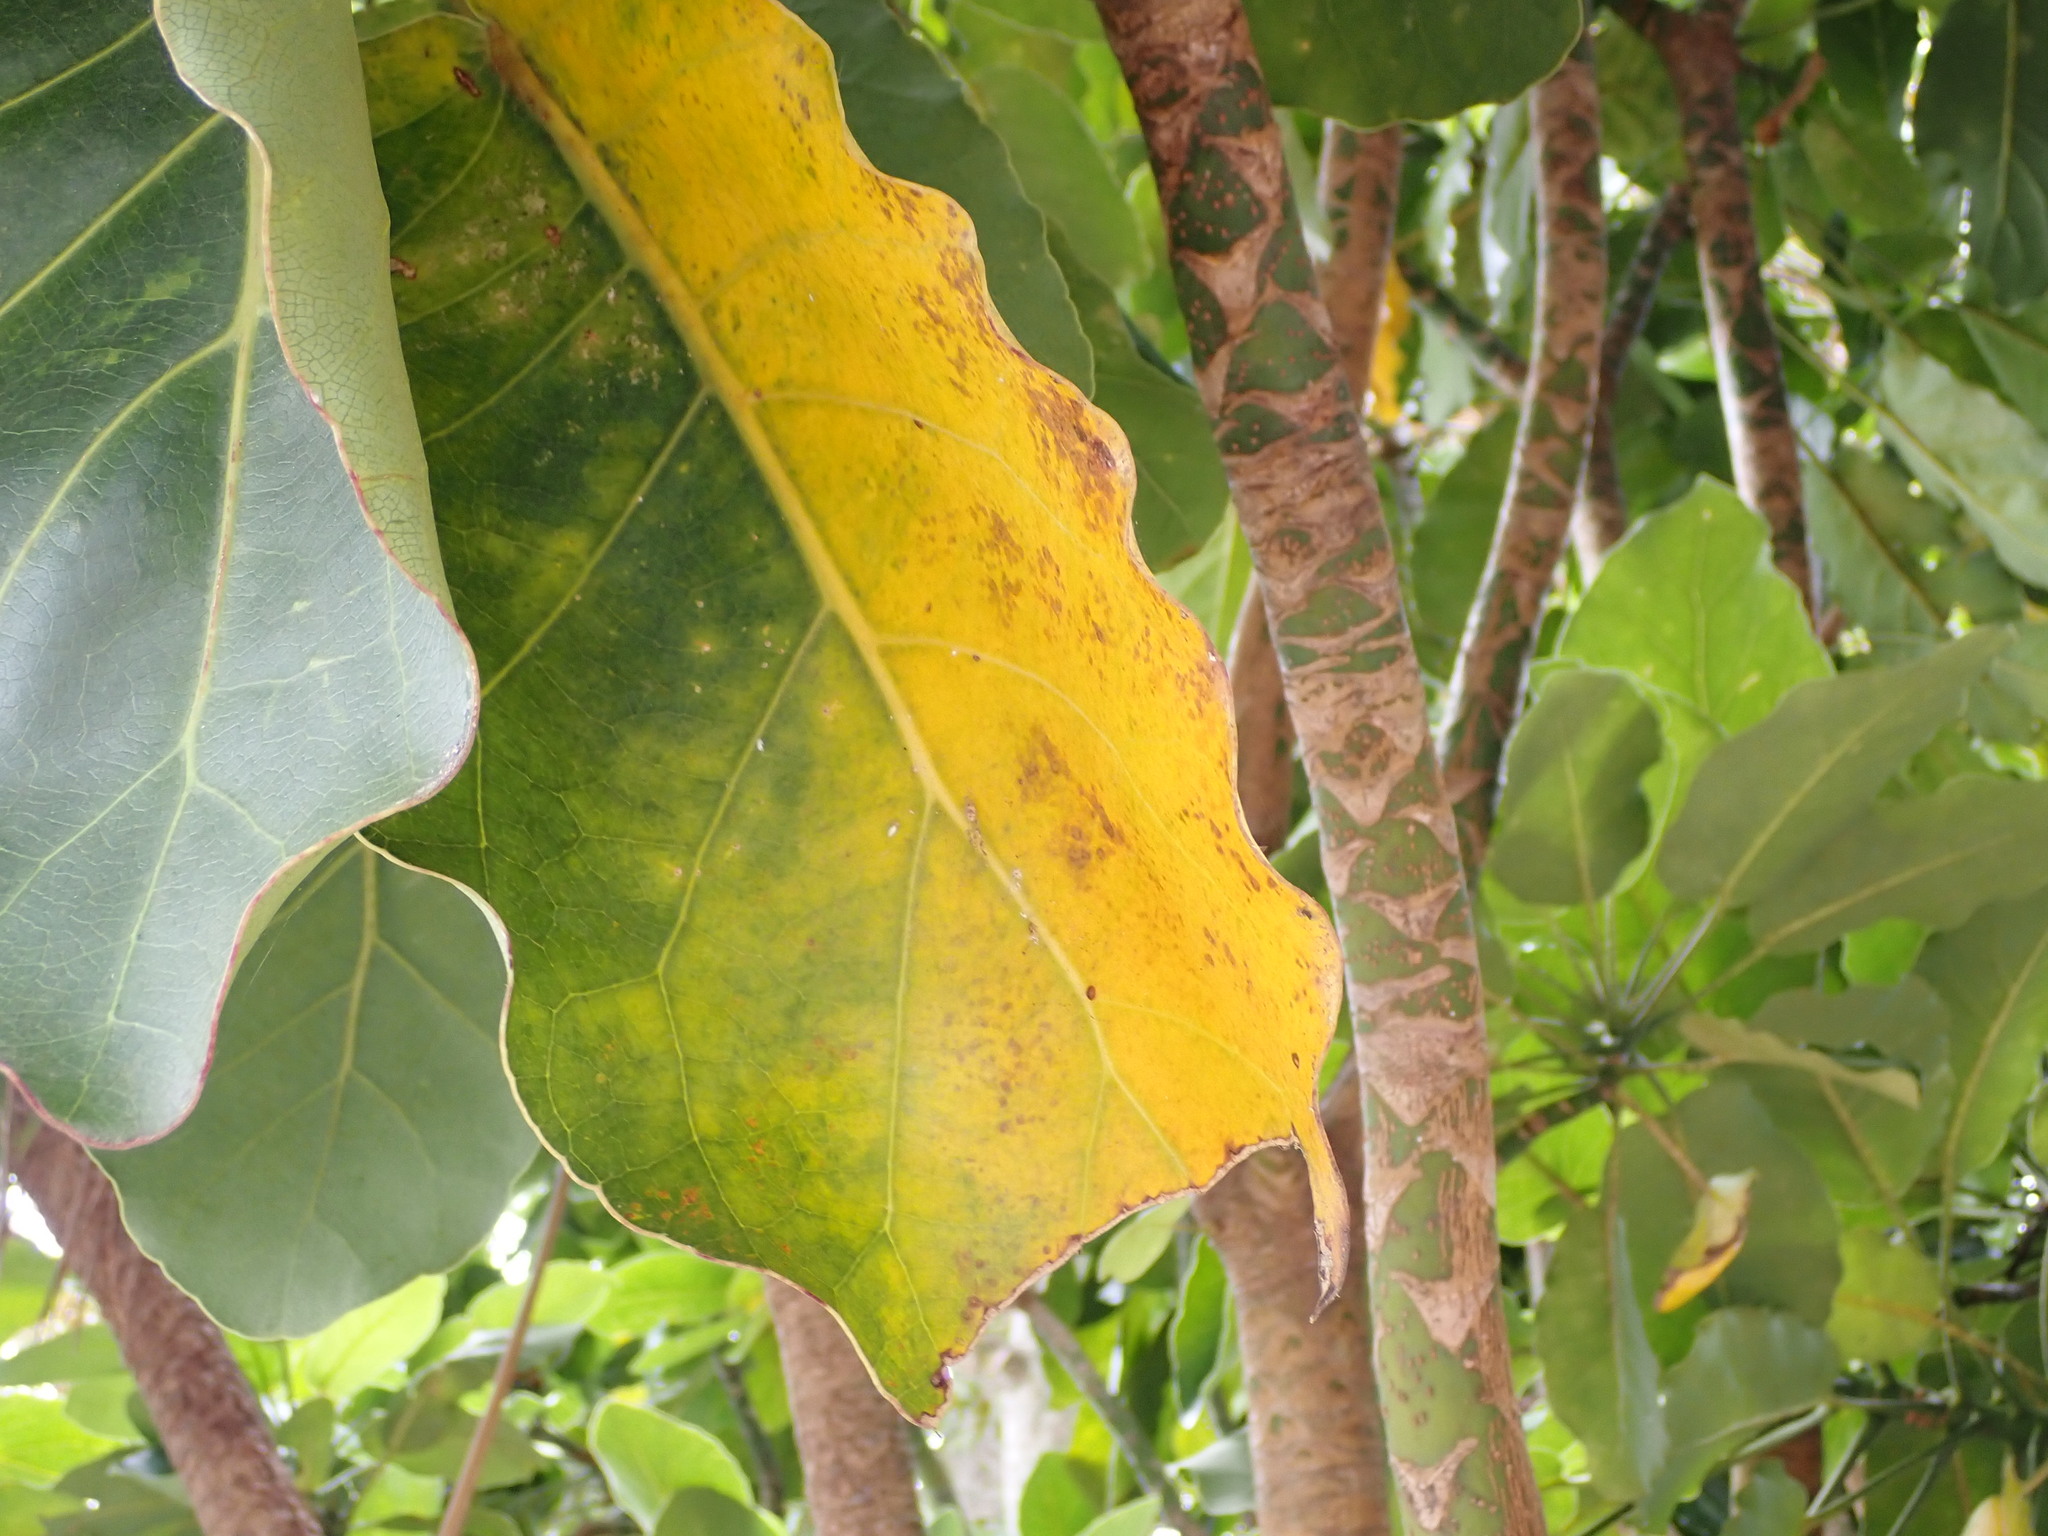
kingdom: Animalia
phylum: Arthropoda
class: Insecta
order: Hemiptera
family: Coccidae
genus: Coccus
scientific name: Coccus hesperidum
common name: Soft brown scale
